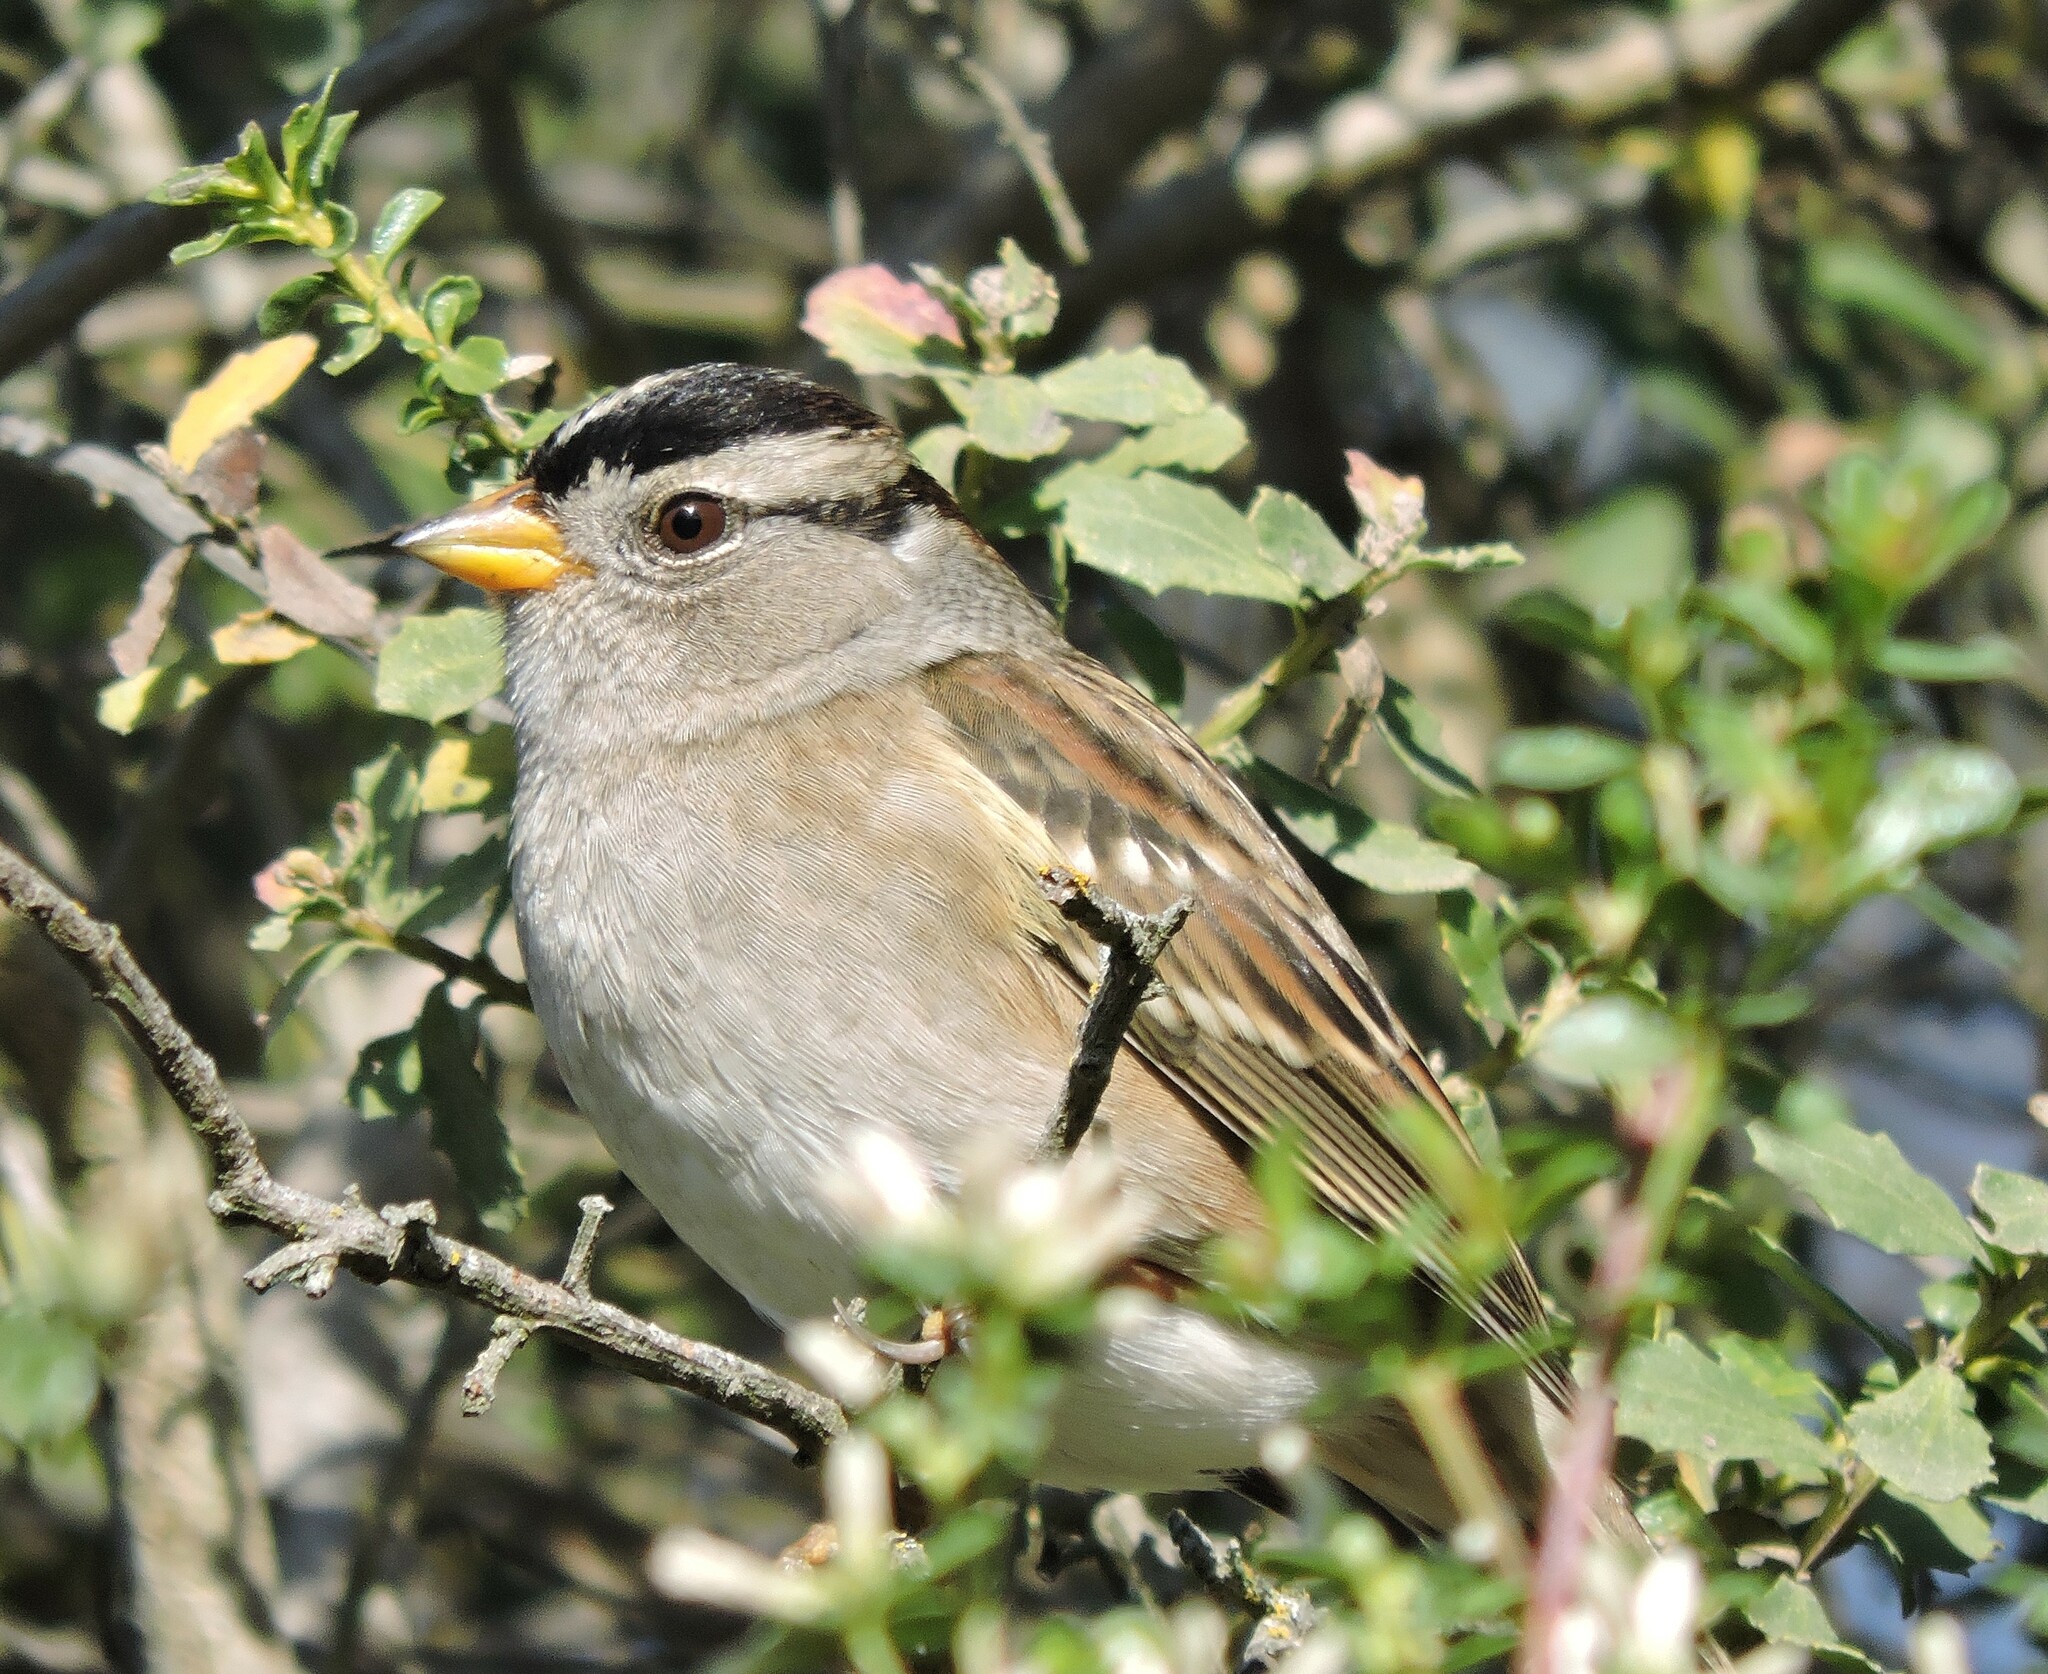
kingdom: Animalia
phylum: Chordata
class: Aves
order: Passeriformes
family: Passerellidae
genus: Zonotrichia
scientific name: Zonotrichia leucophrys
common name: White-crowned sparrow
